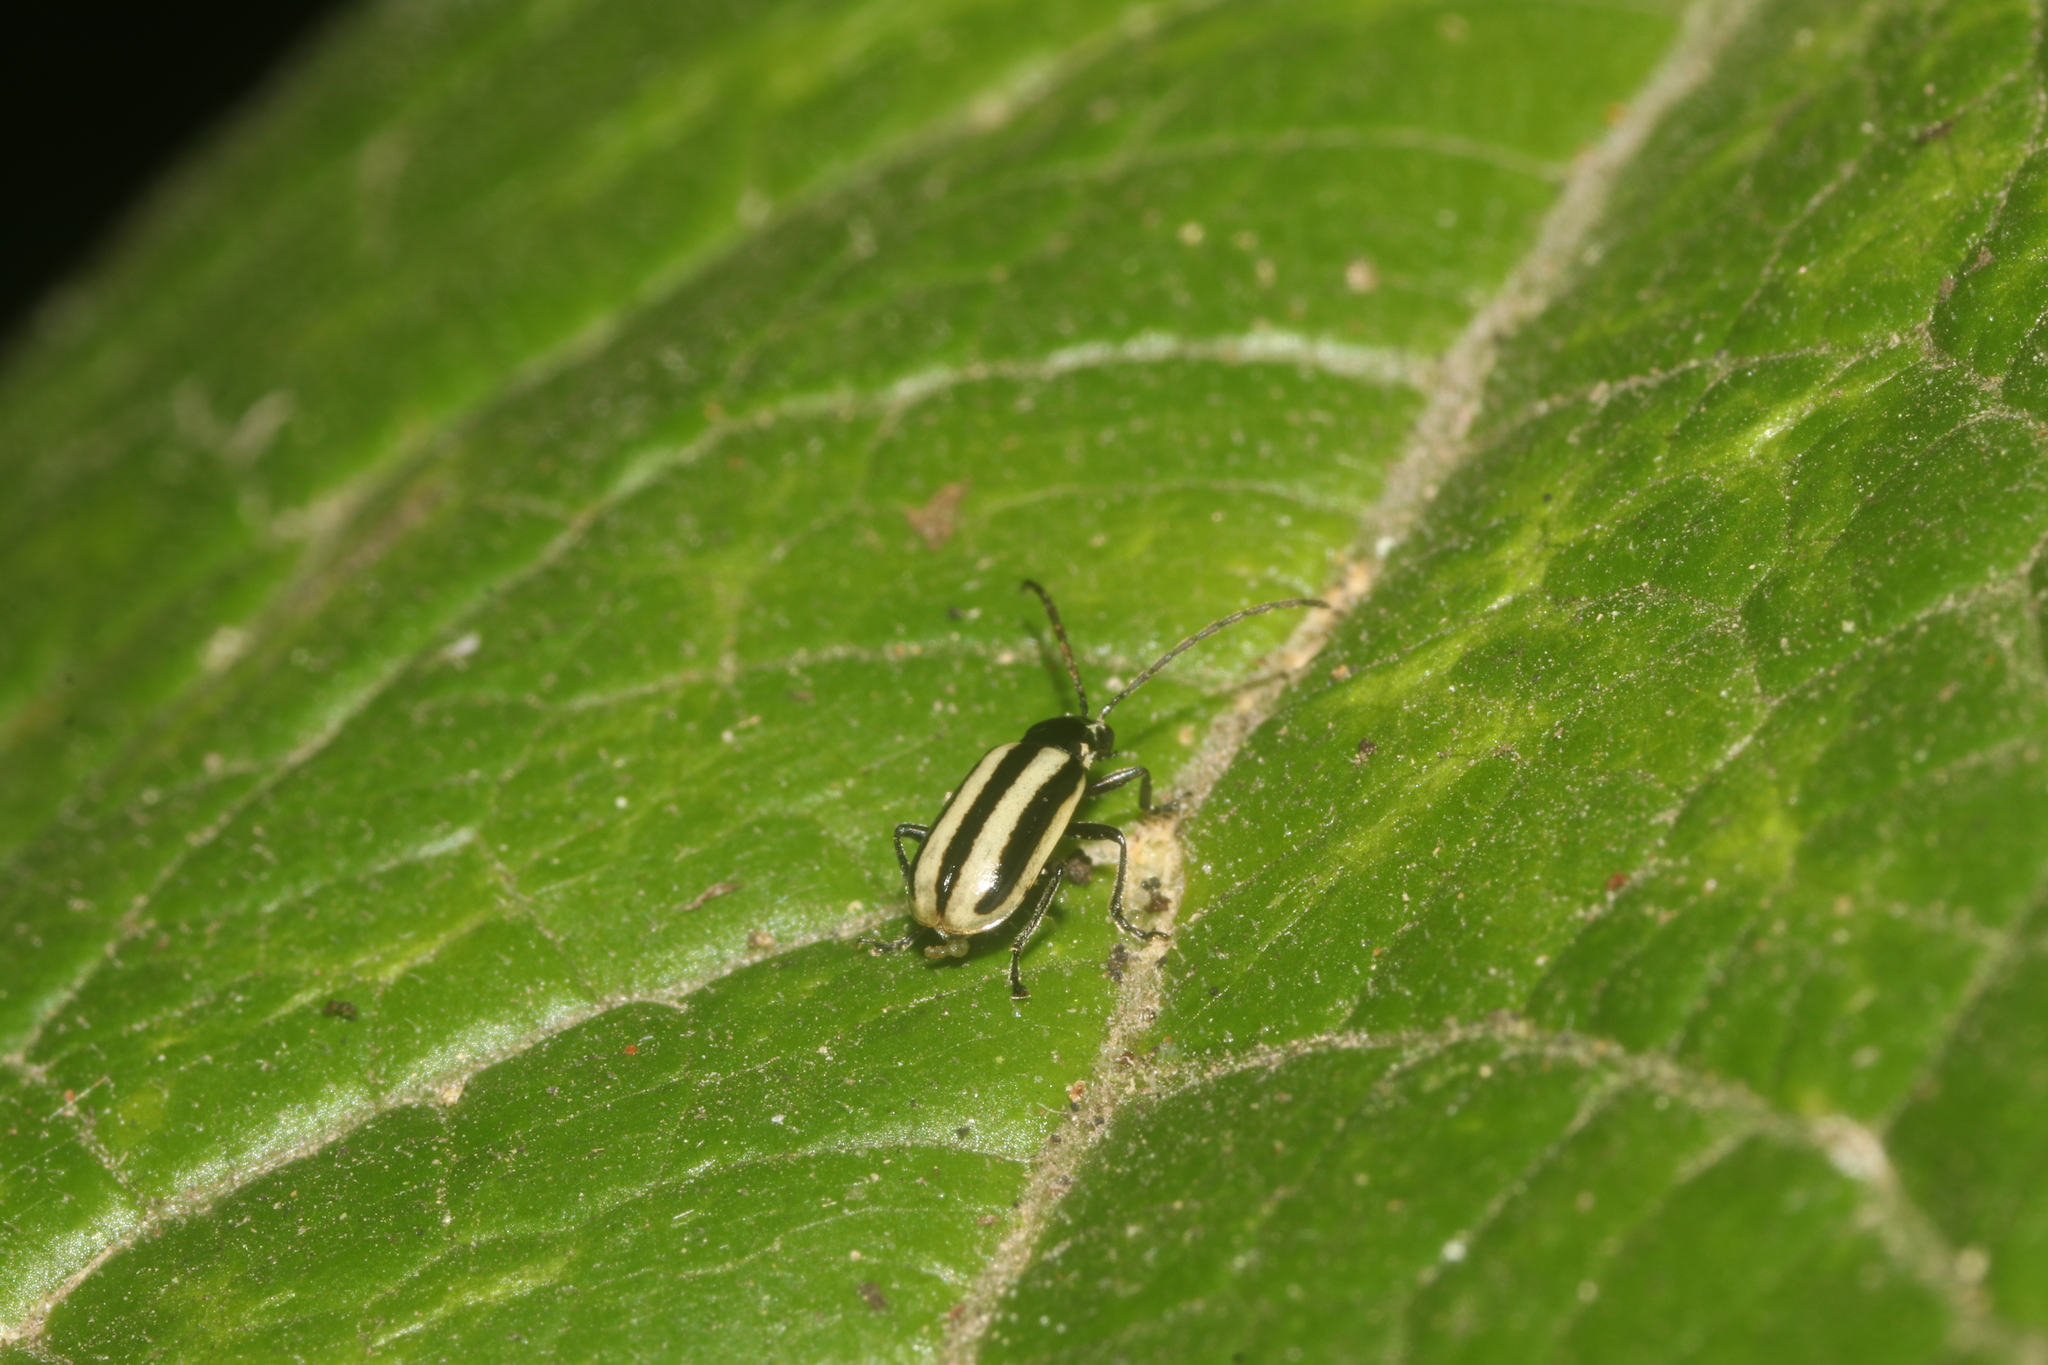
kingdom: Animalia
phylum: Arthropoda
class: Insecta
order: Coleoptera
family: Chrysomelidae
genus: Diabrotica
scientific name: Diabrotica lemniscata
